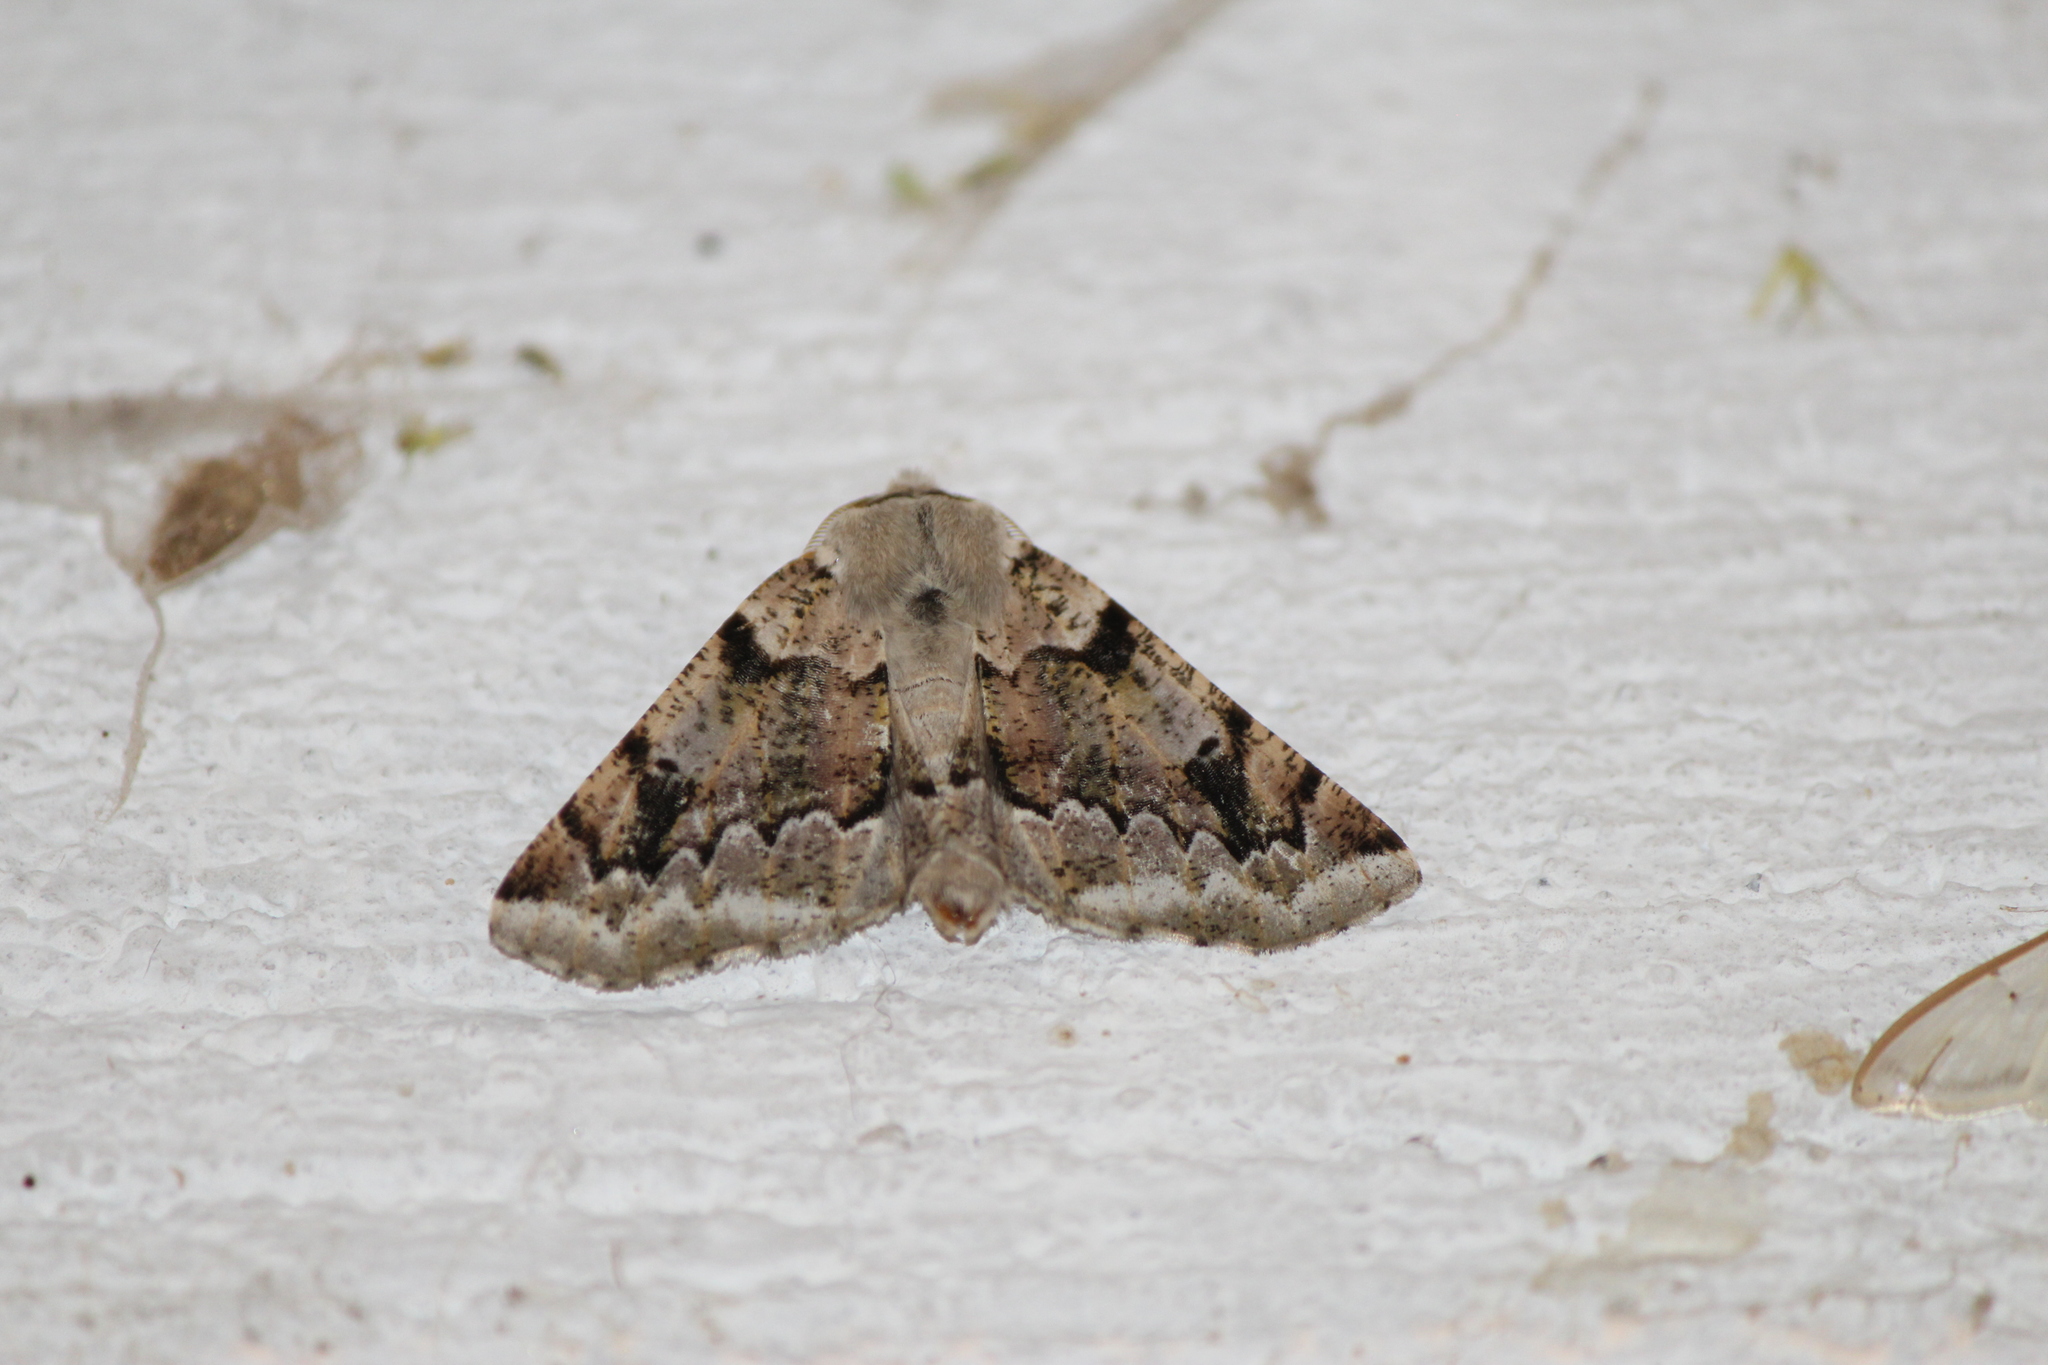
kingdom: Animalia
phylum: Arthropoda
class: Insecta
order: Lepidoptera
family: Geometridae
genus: Acronyctodes
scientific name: Acronyctodes mexicanaria
